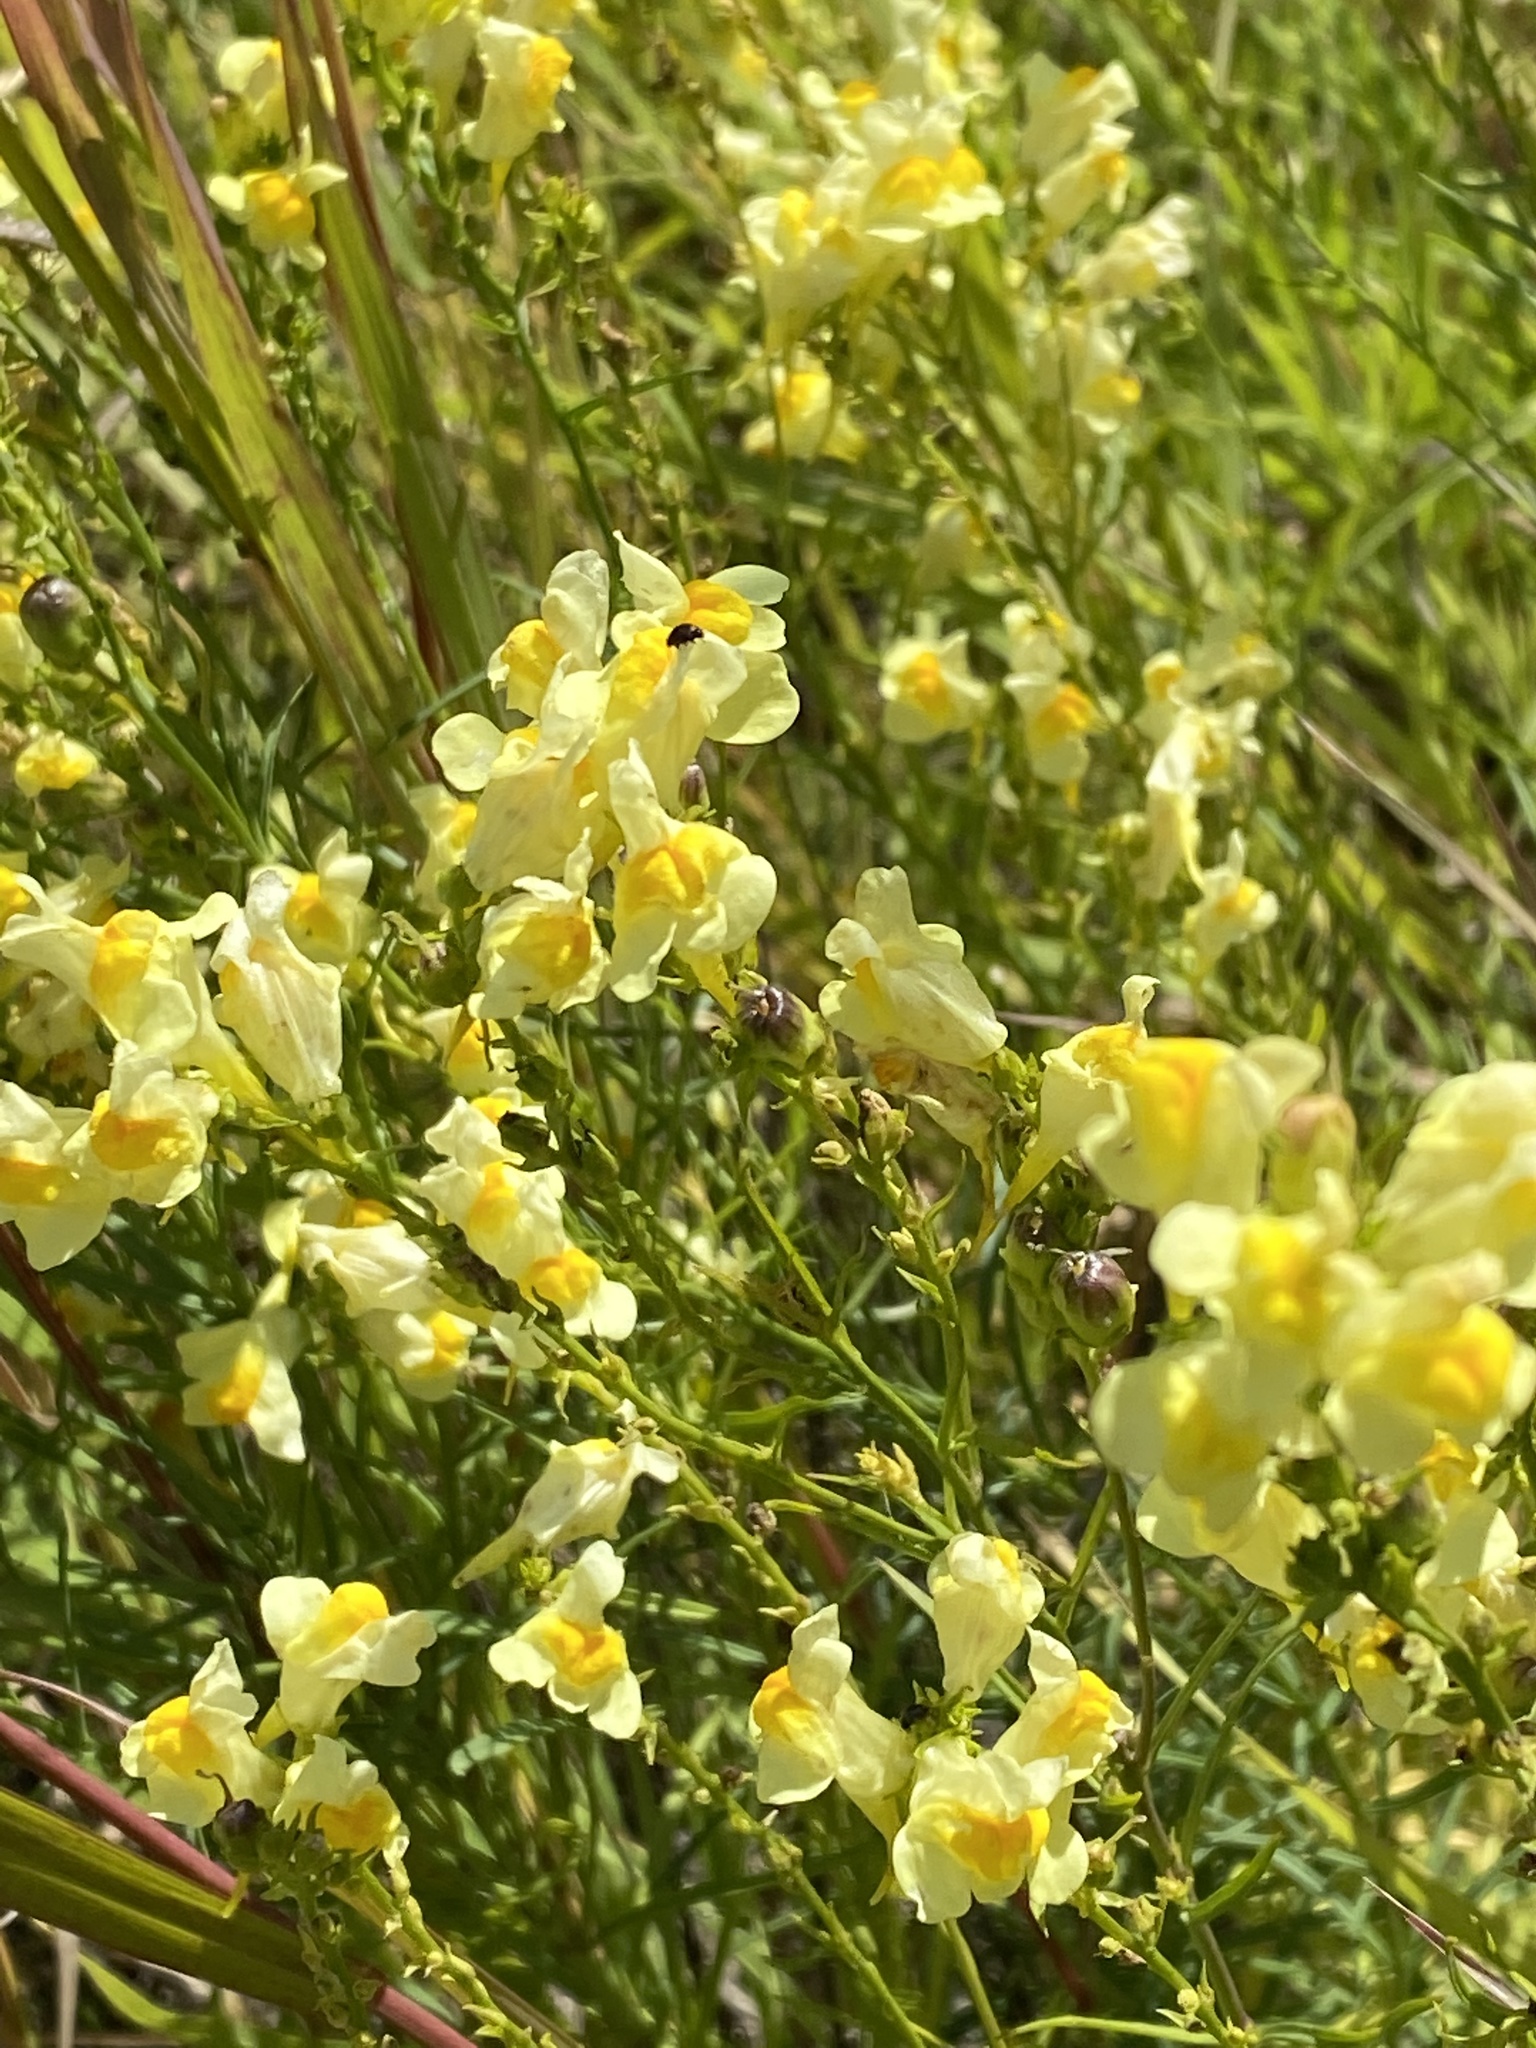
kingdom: Plantae
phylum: Tracheophyta
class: Magnoliopsida
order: Lamiales
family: Plantaginaceae
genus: Linaria
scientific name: Linaria vulgaris
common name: Butter and eggs
